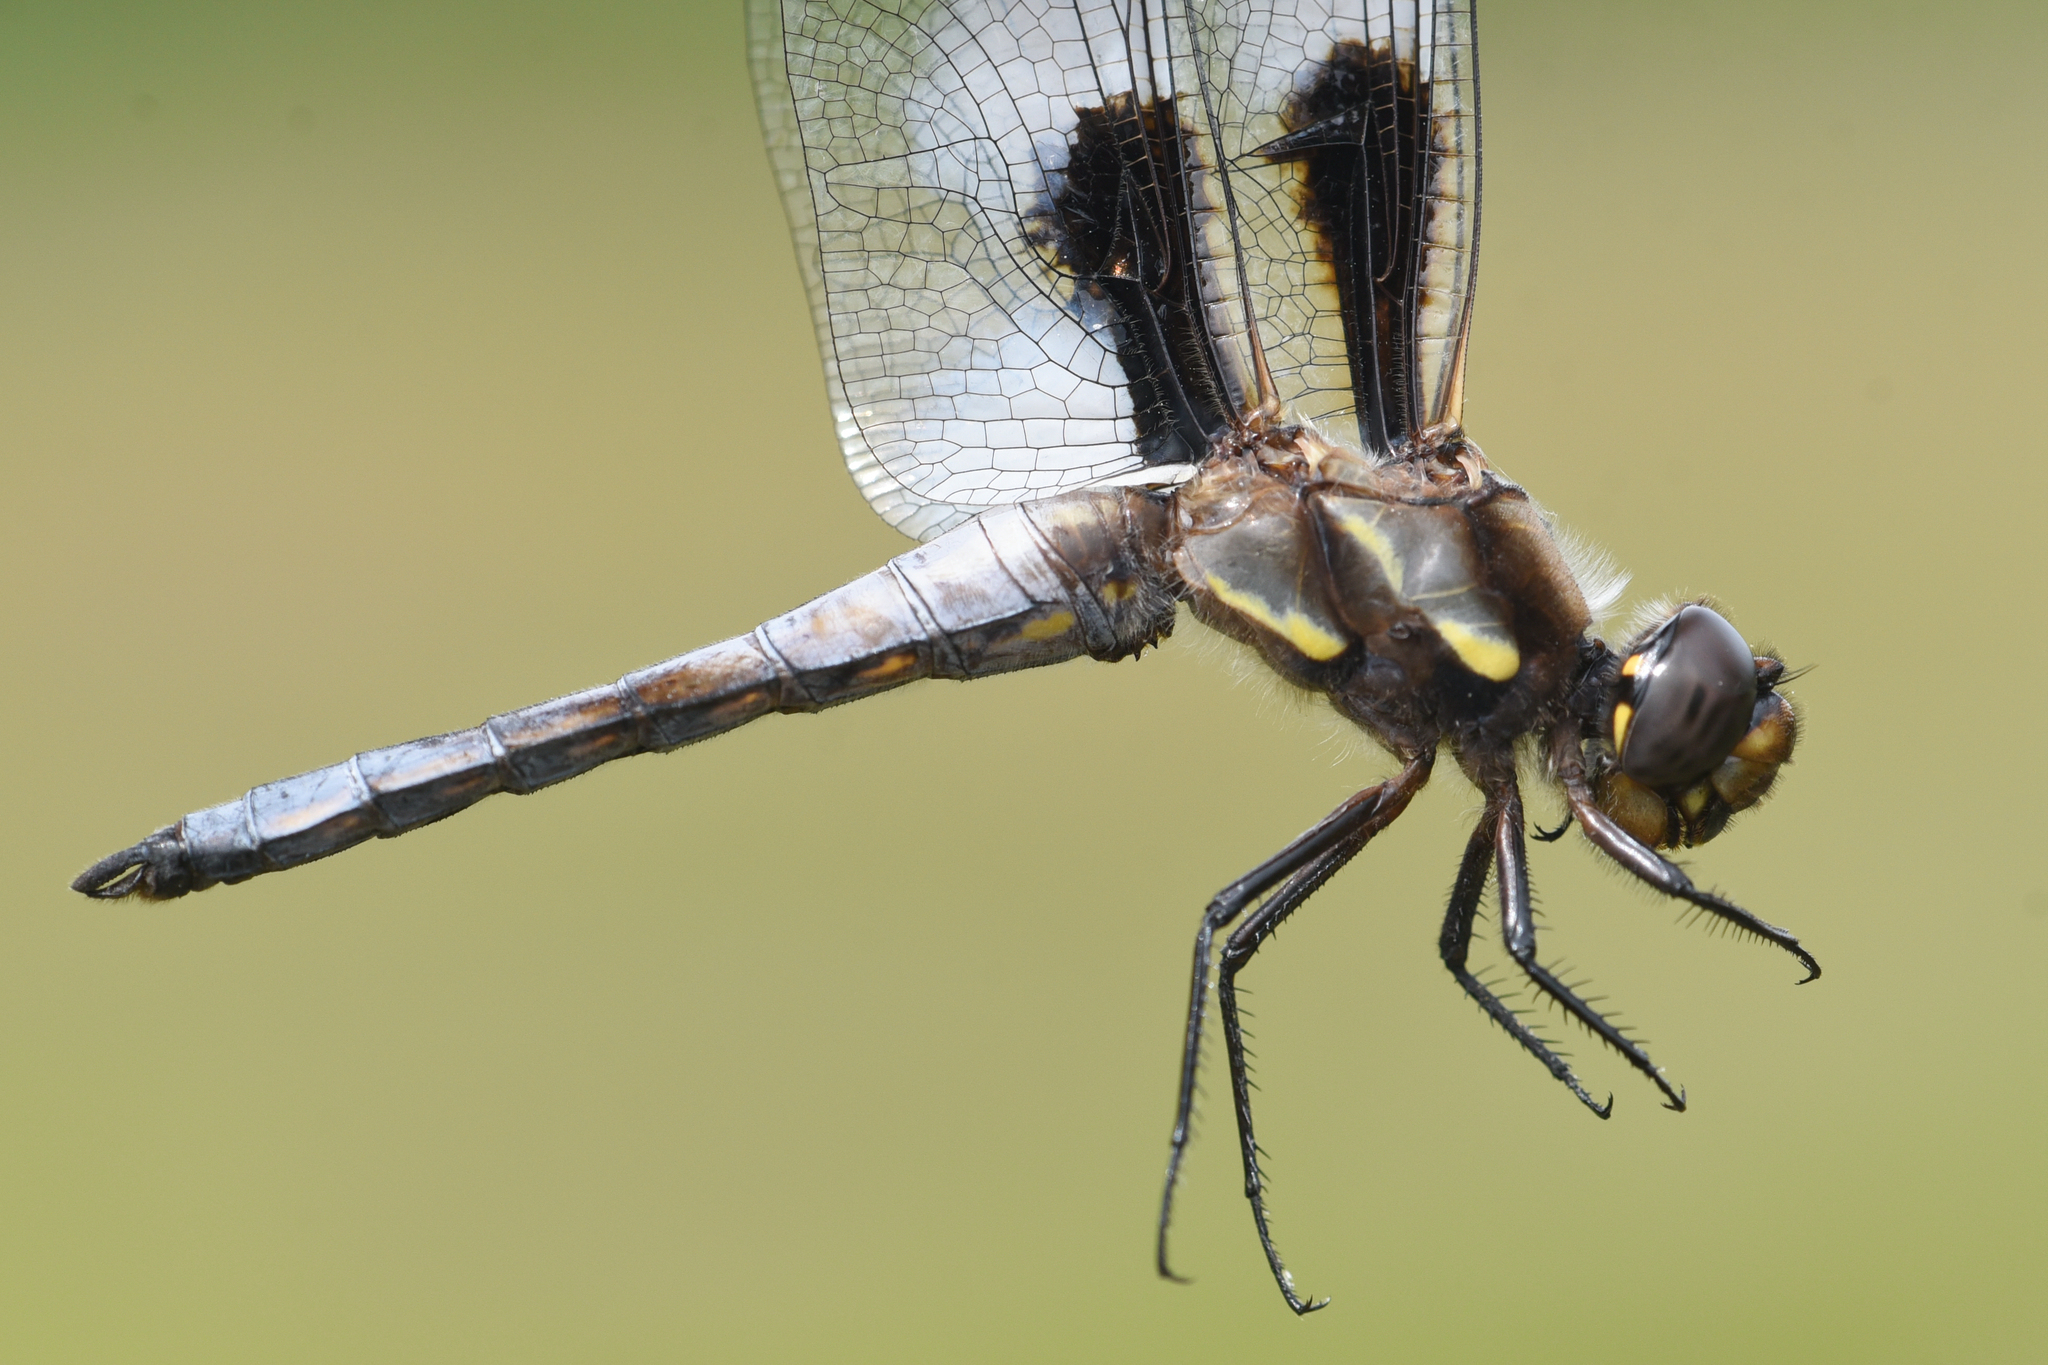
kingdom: Animalia
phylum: Arthropoda
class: Insecta
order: Odonata
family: Libellulidae
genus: Libellula
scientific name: Libellula pulchella
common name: Twelve-spotted skimmer
